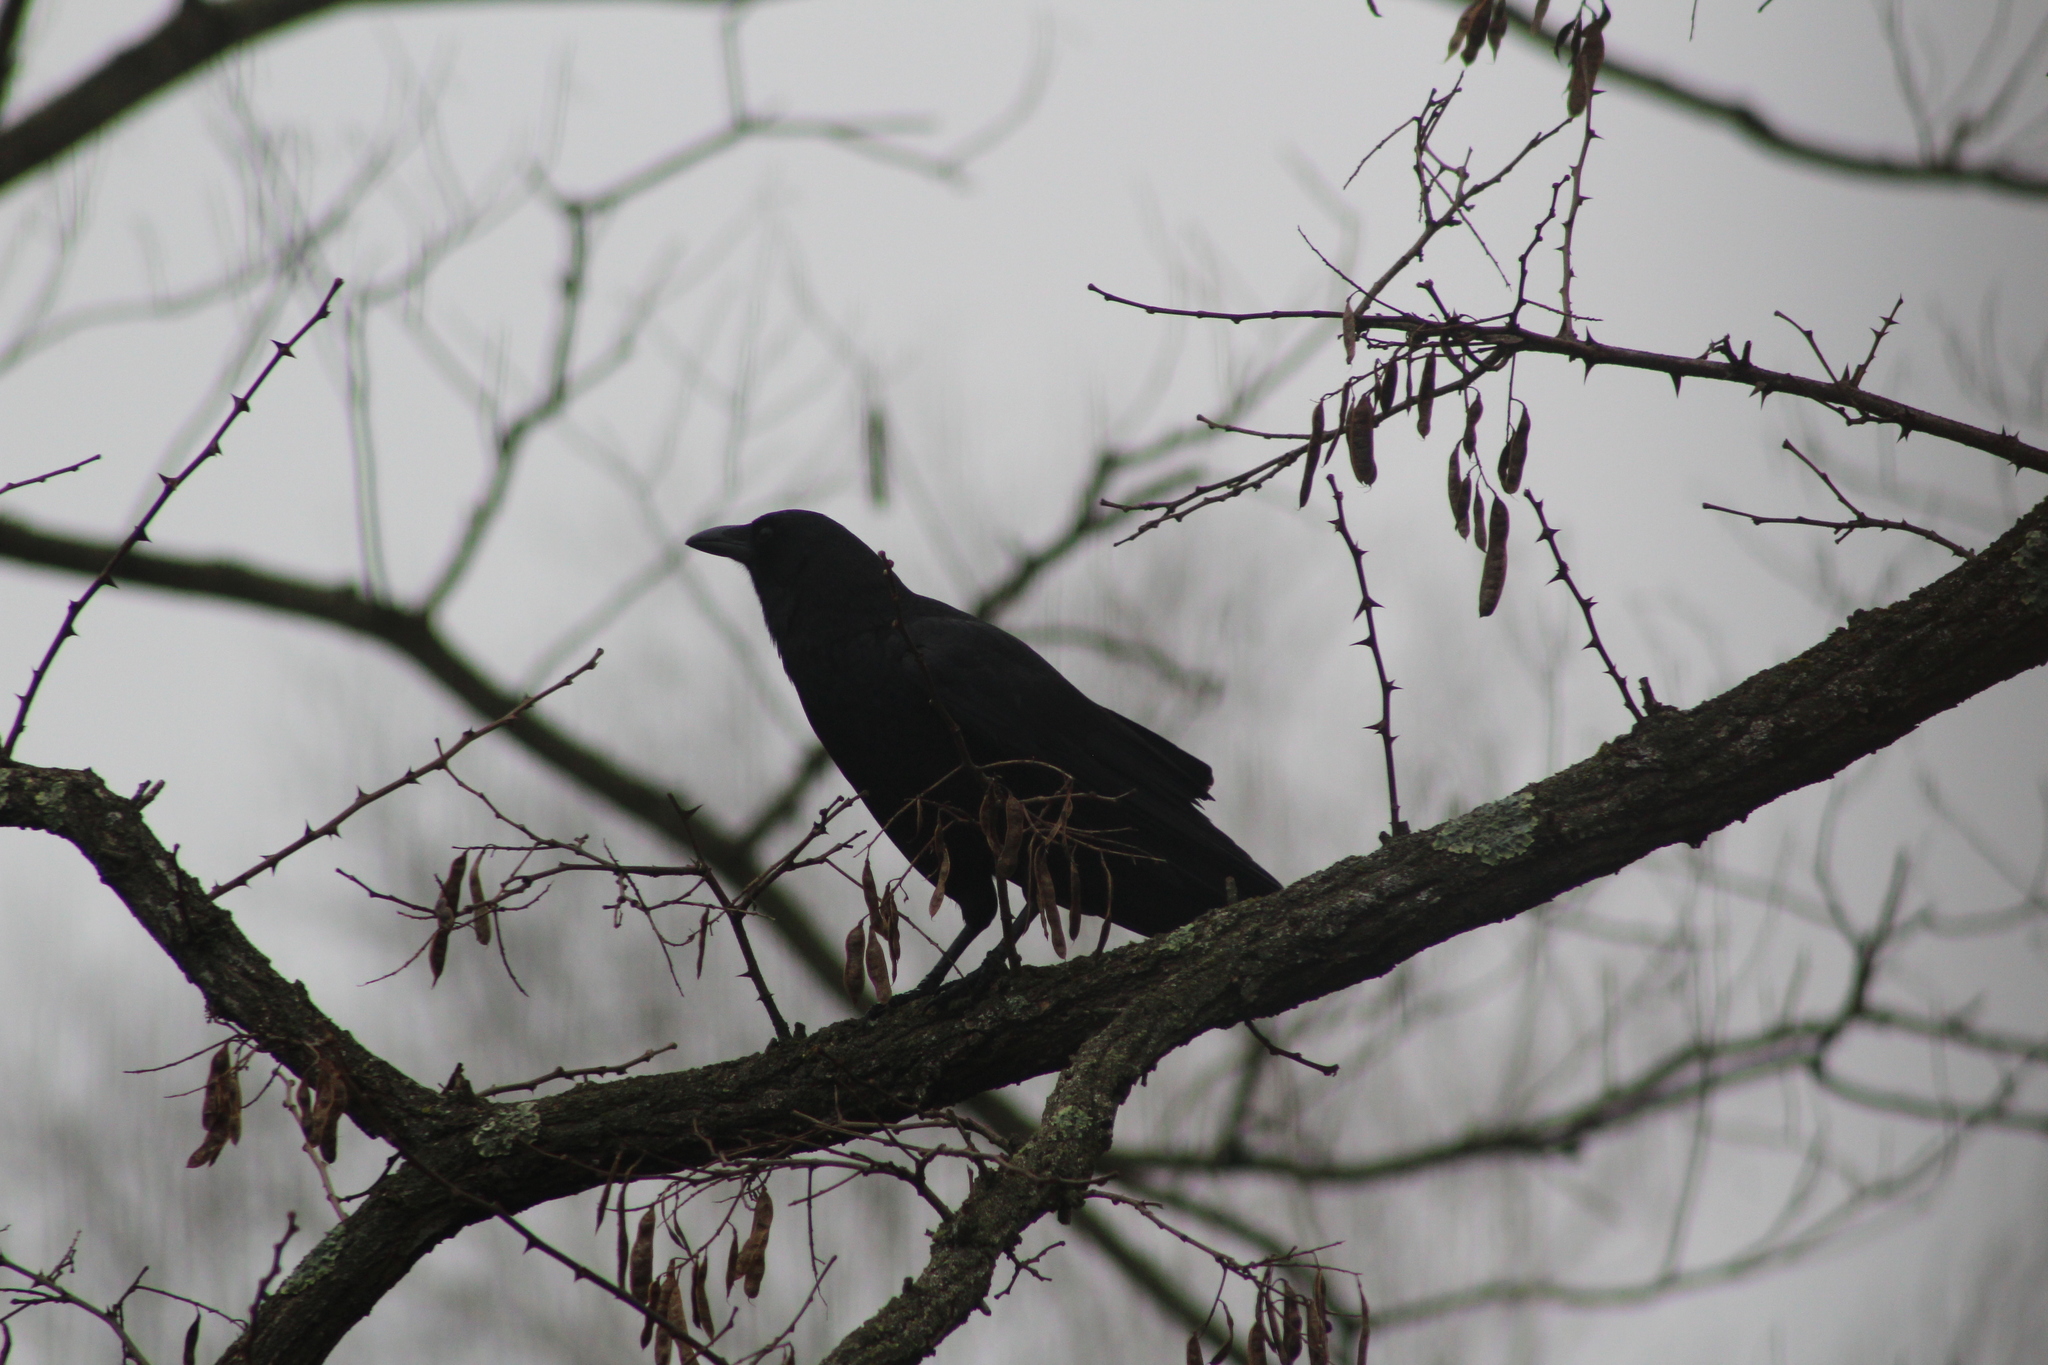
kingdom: Animalia
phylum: Chordata
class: Aves
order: Passeriformes
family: Corvidae
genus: Corvus
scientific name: Corvus brachyrhynchos
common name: American crow
